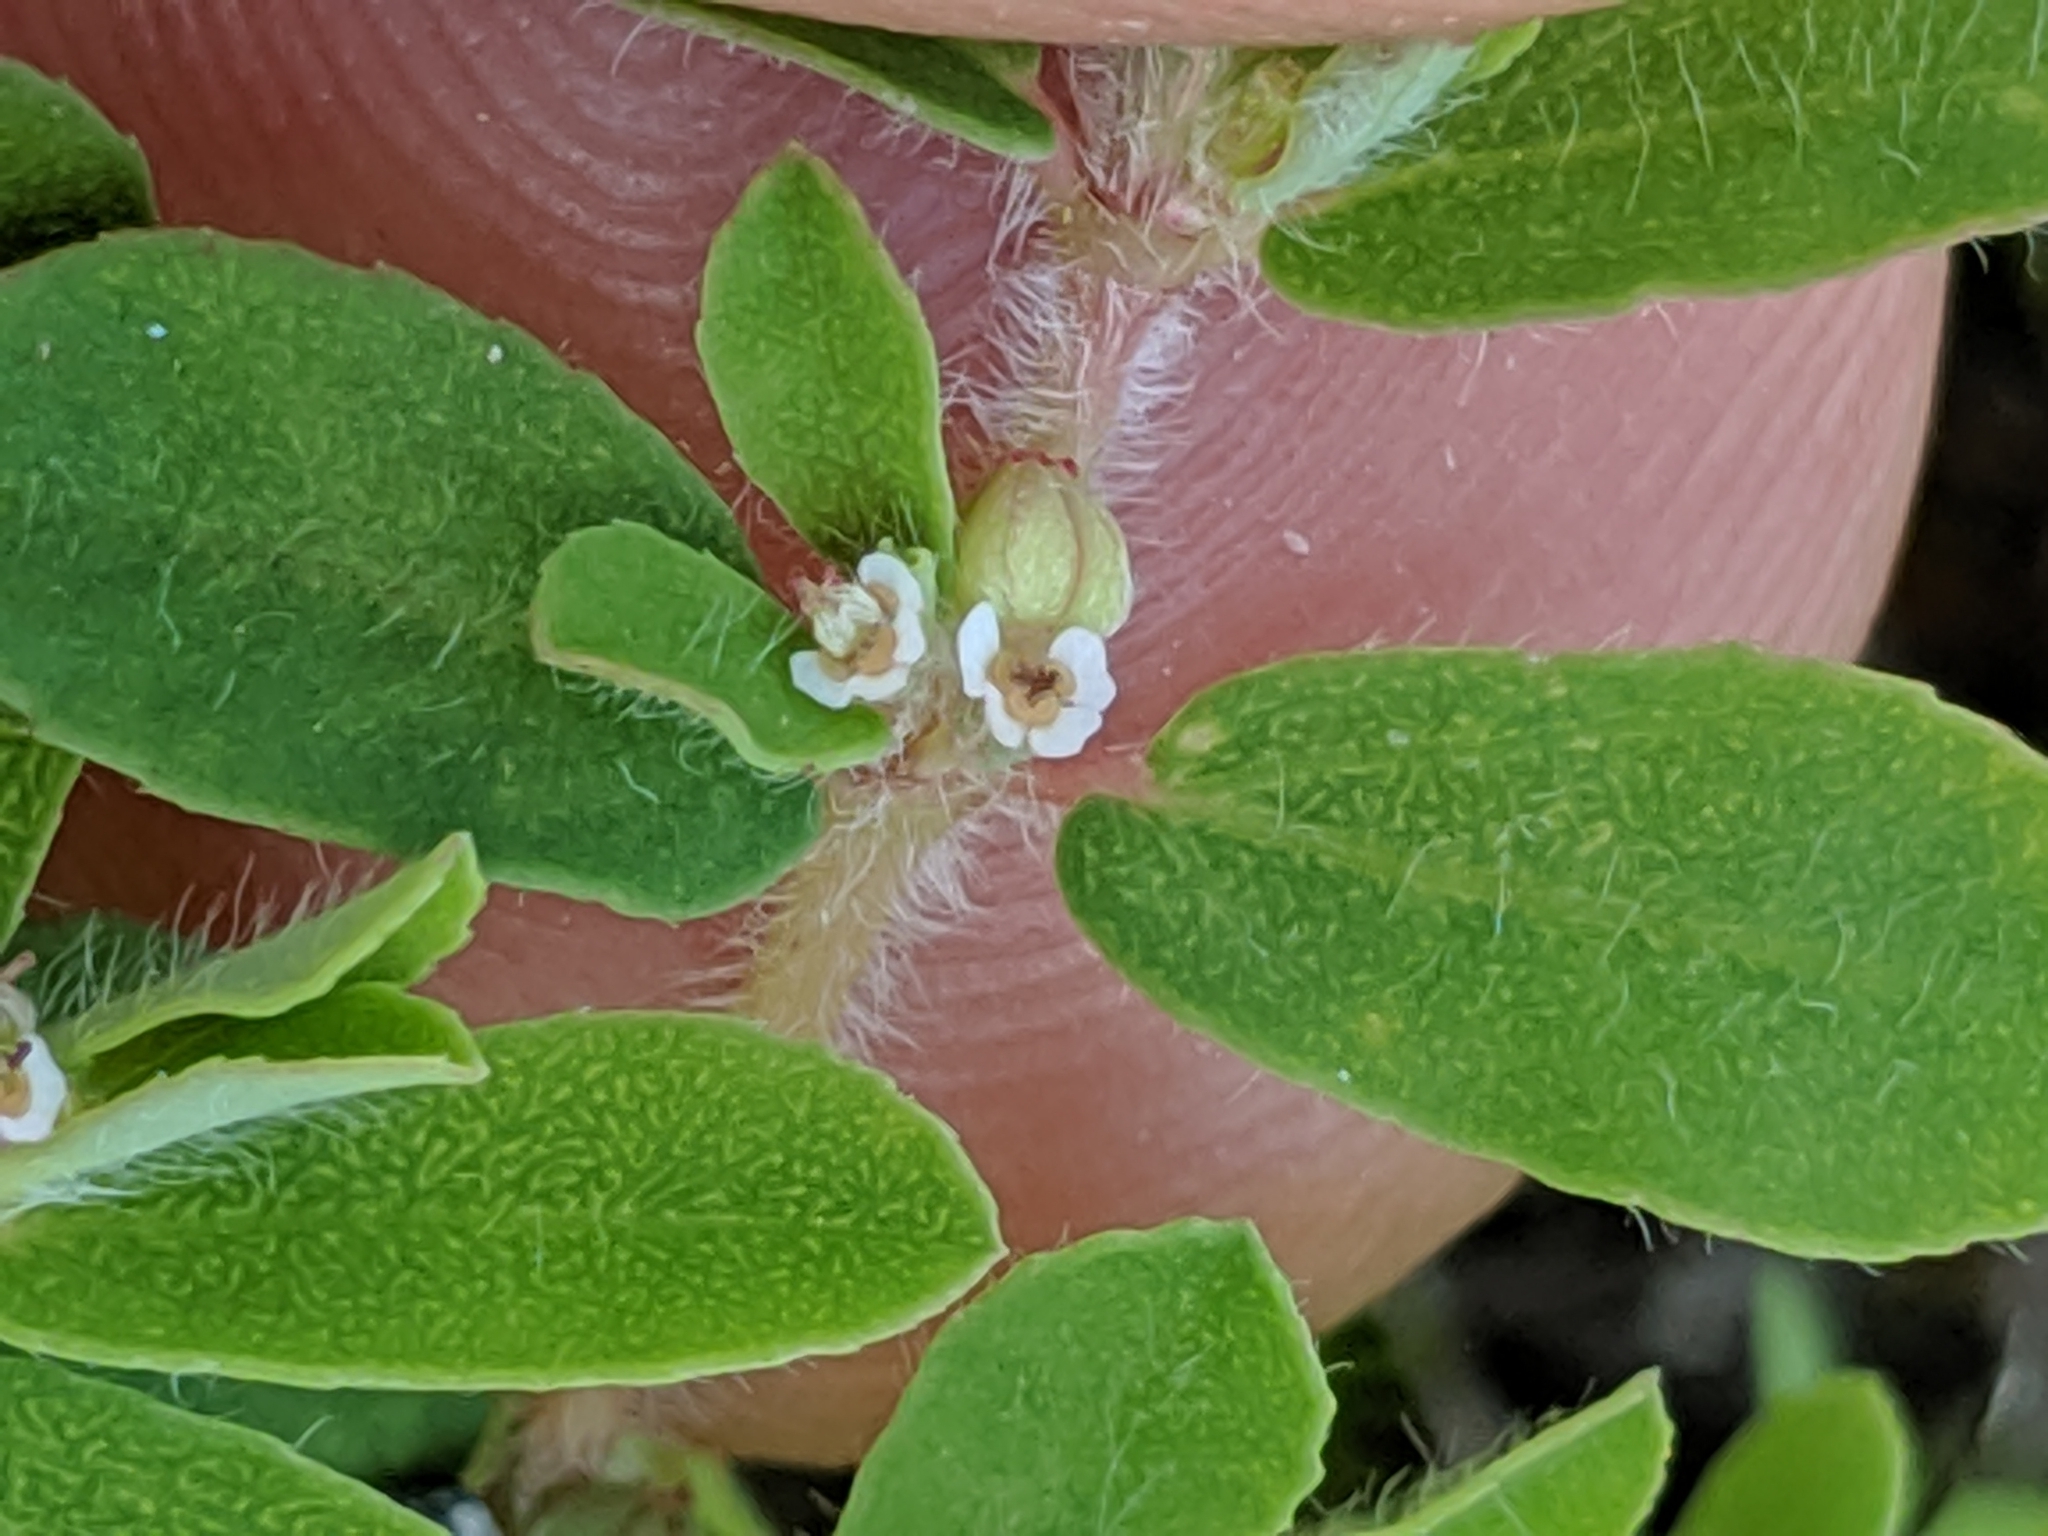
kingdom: Plantae
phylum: Tracheophyta
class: Magnoliopsida
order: Malpighiales
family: Euphorbiaceae
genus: Euphorbia
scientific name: Euphorbia maculata
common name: Spotted spurge
